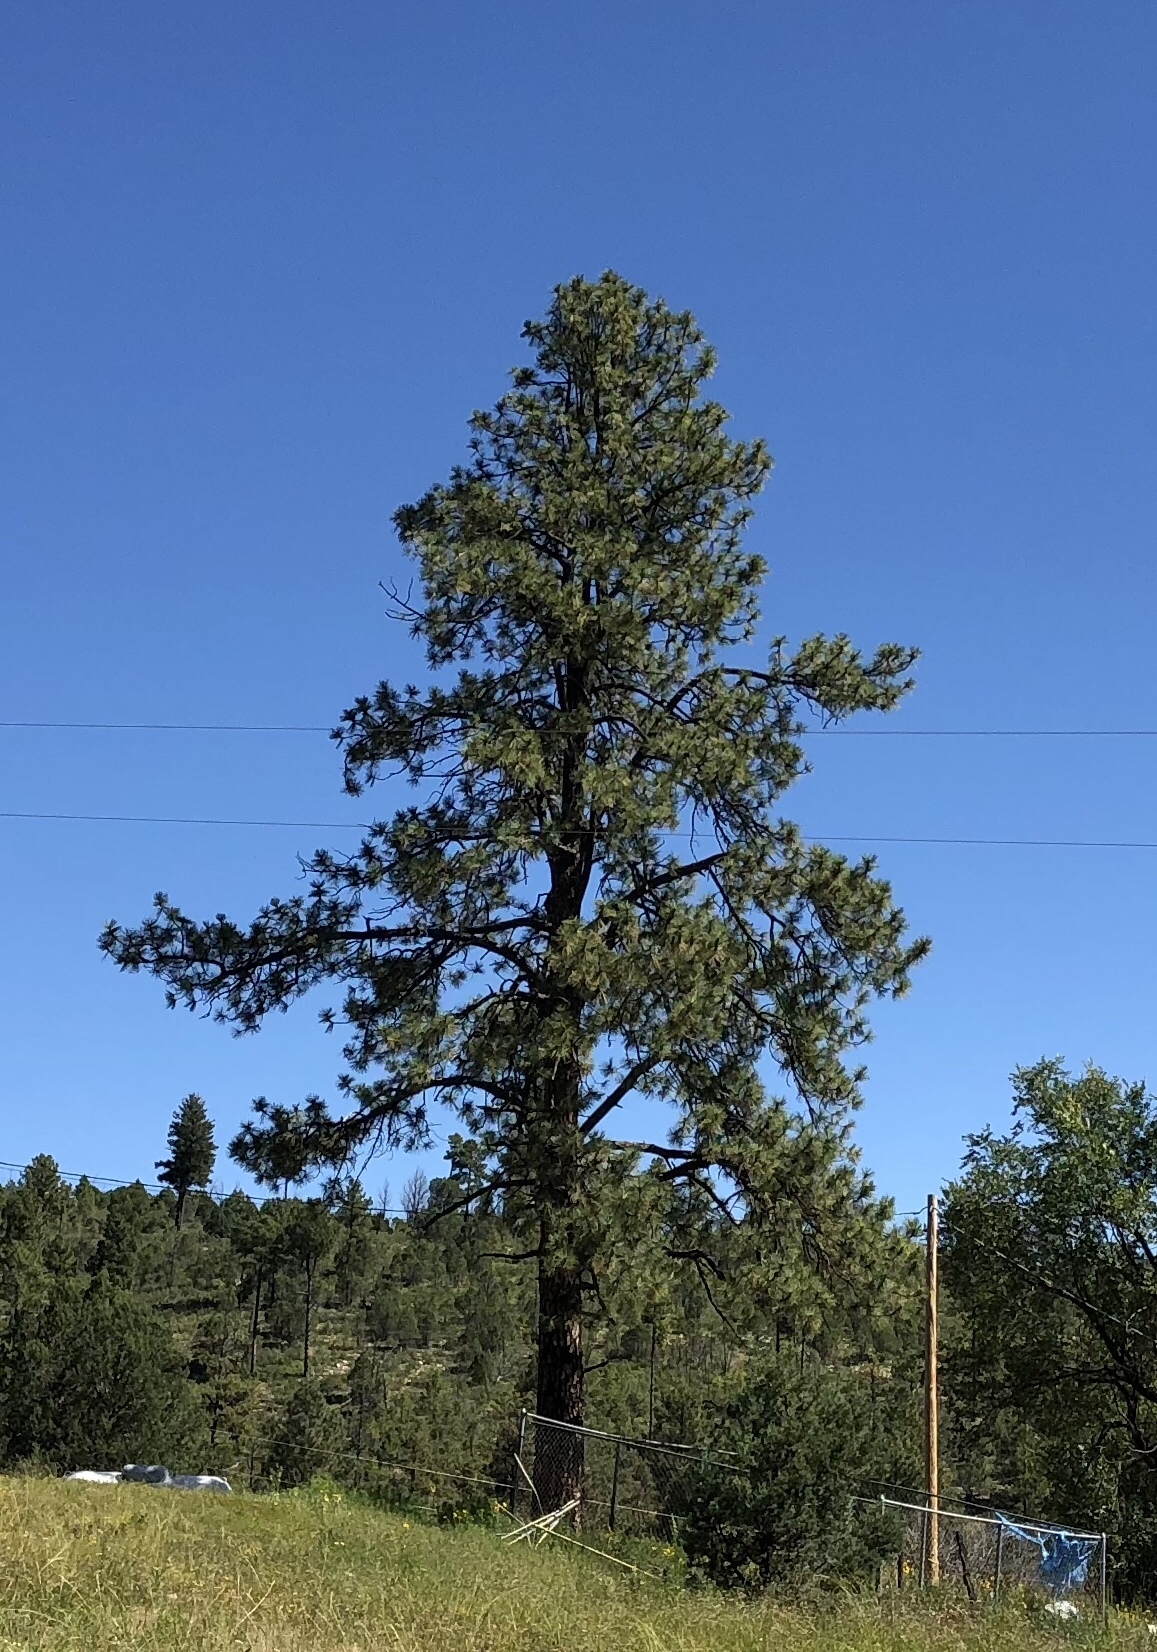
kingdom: Plantae
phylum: Tracheophyta
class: Pinopsida
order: Pinales
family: Pinaceae
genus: Pinus
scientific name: Pinus ponderosa
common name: Western yellow-pine
